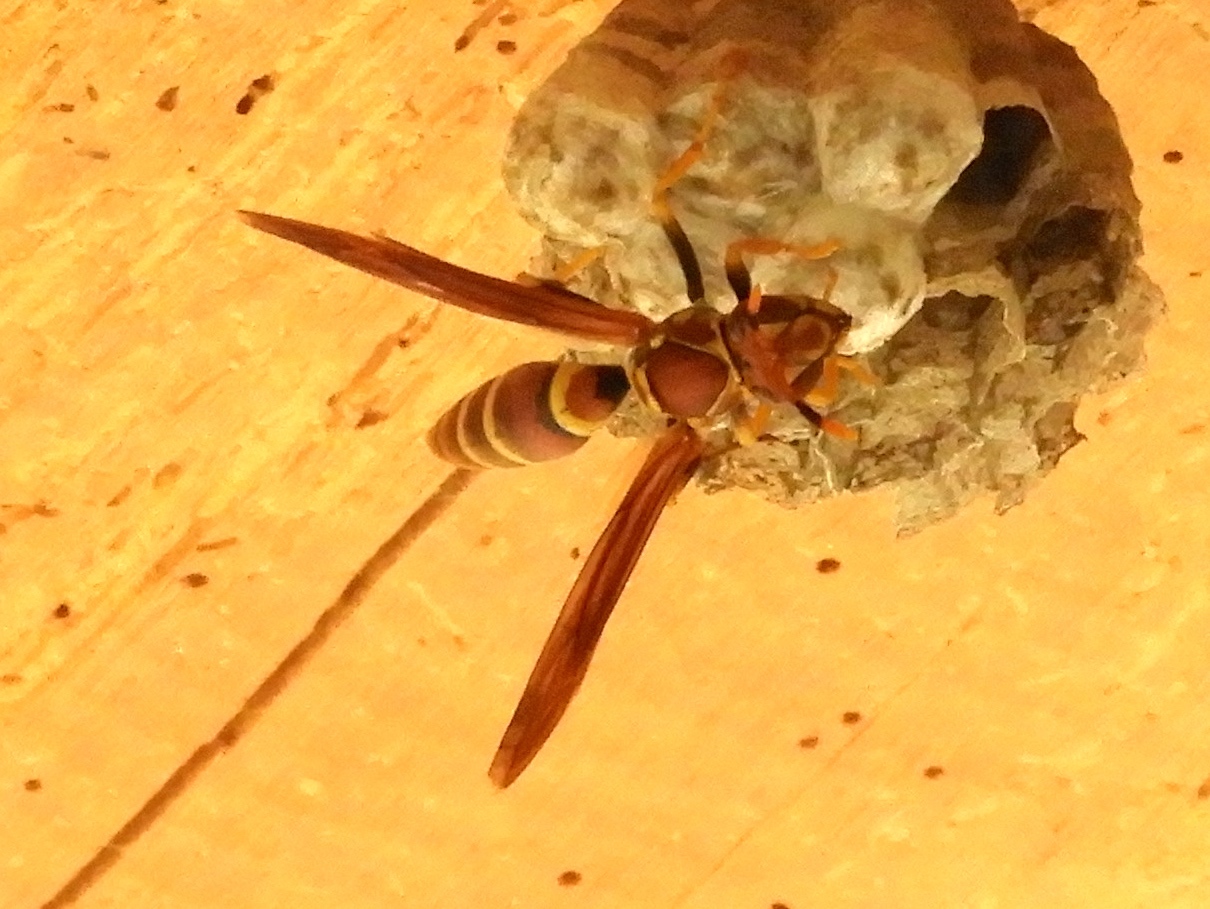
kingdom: Animalia
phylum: Arthropoda
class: Insecta
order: Hymenoptera
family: Eumenidae
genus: Polistes
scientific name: Polistes instabilis
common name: Unstable paper wasp
